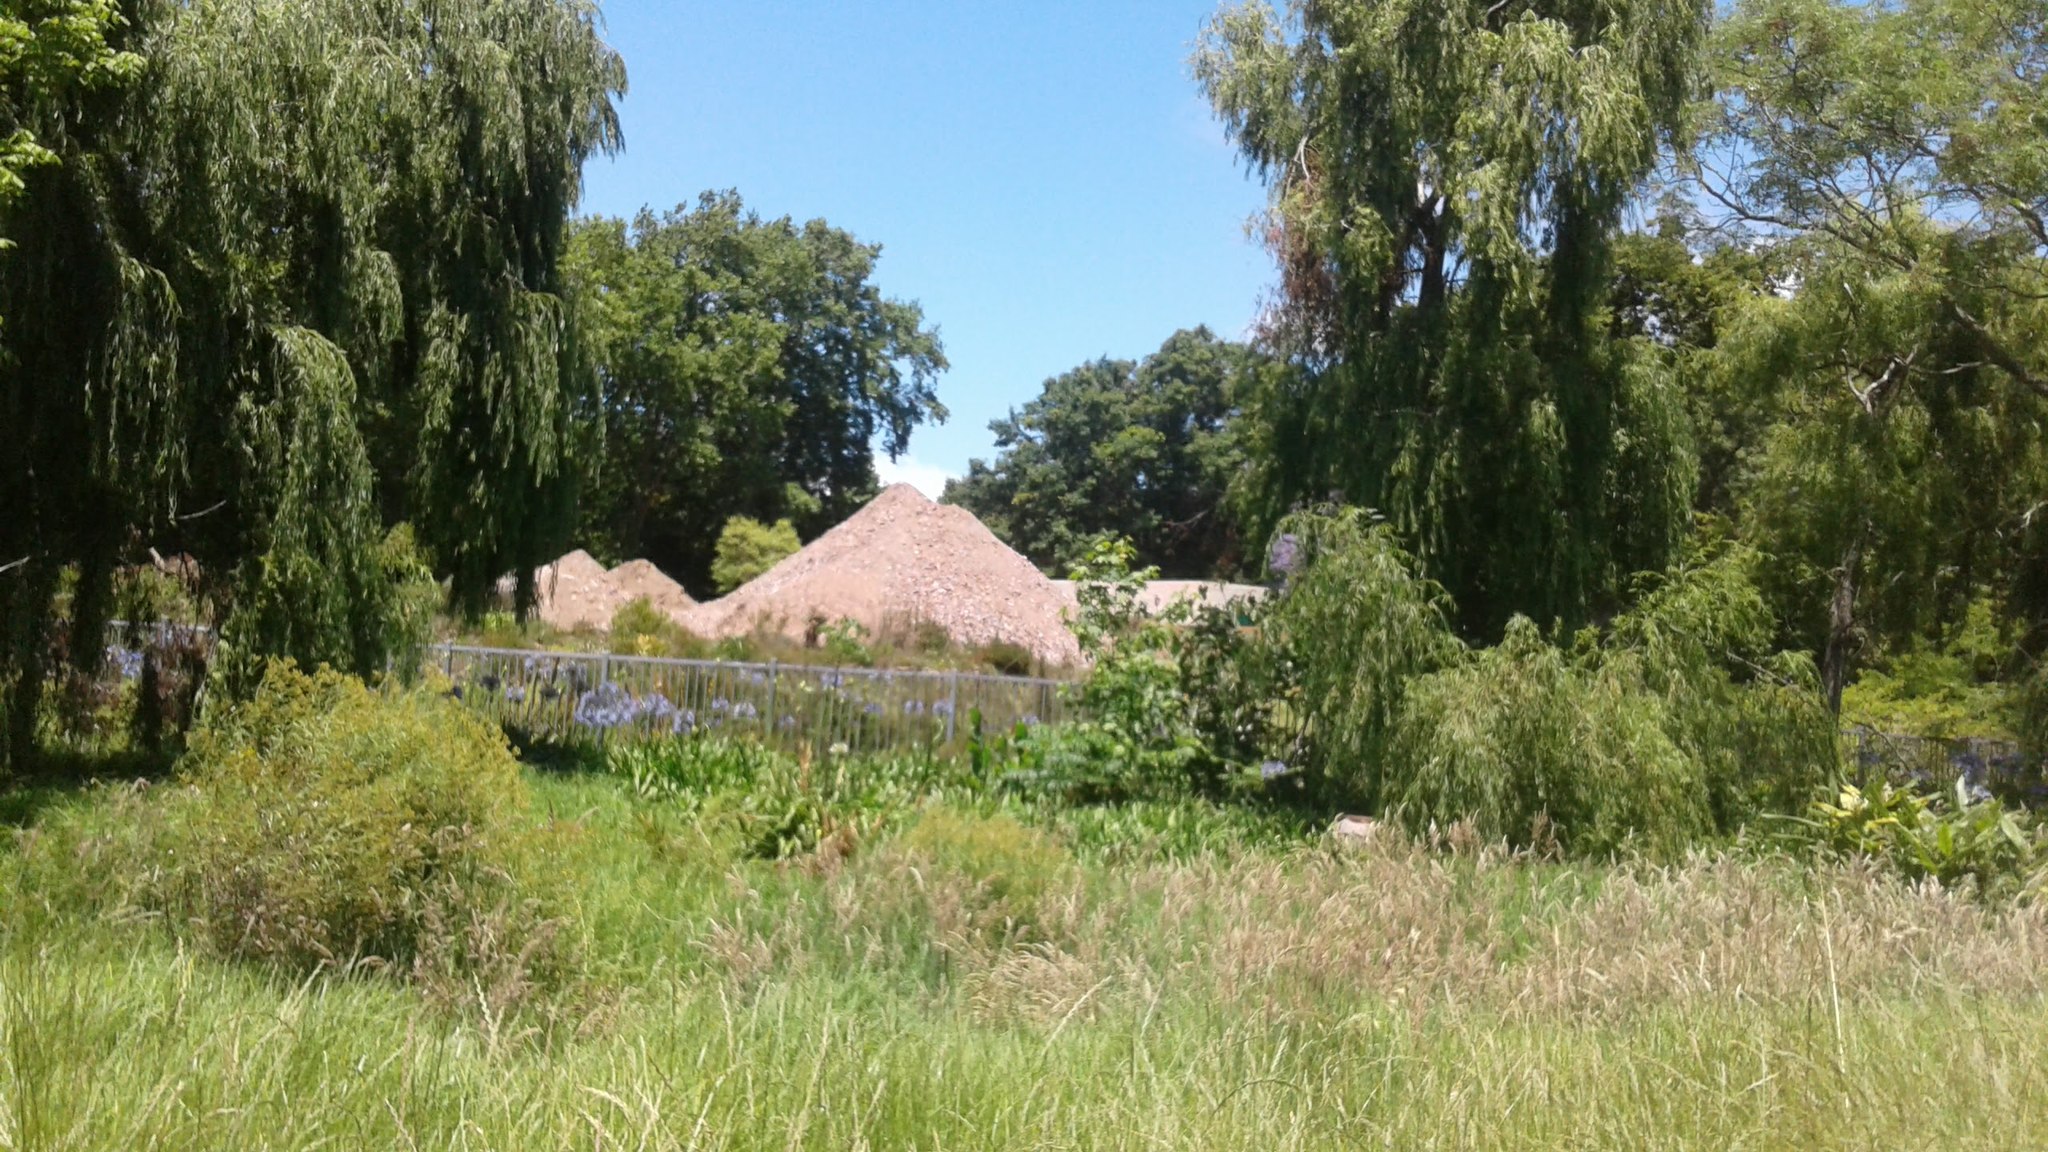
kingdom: Plantae
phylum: Tracheophyta
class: Magnoliopsida
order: Malpighiales
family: Salicaceae
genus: Salix
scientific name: Salix babylonica
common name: Weeping willow
